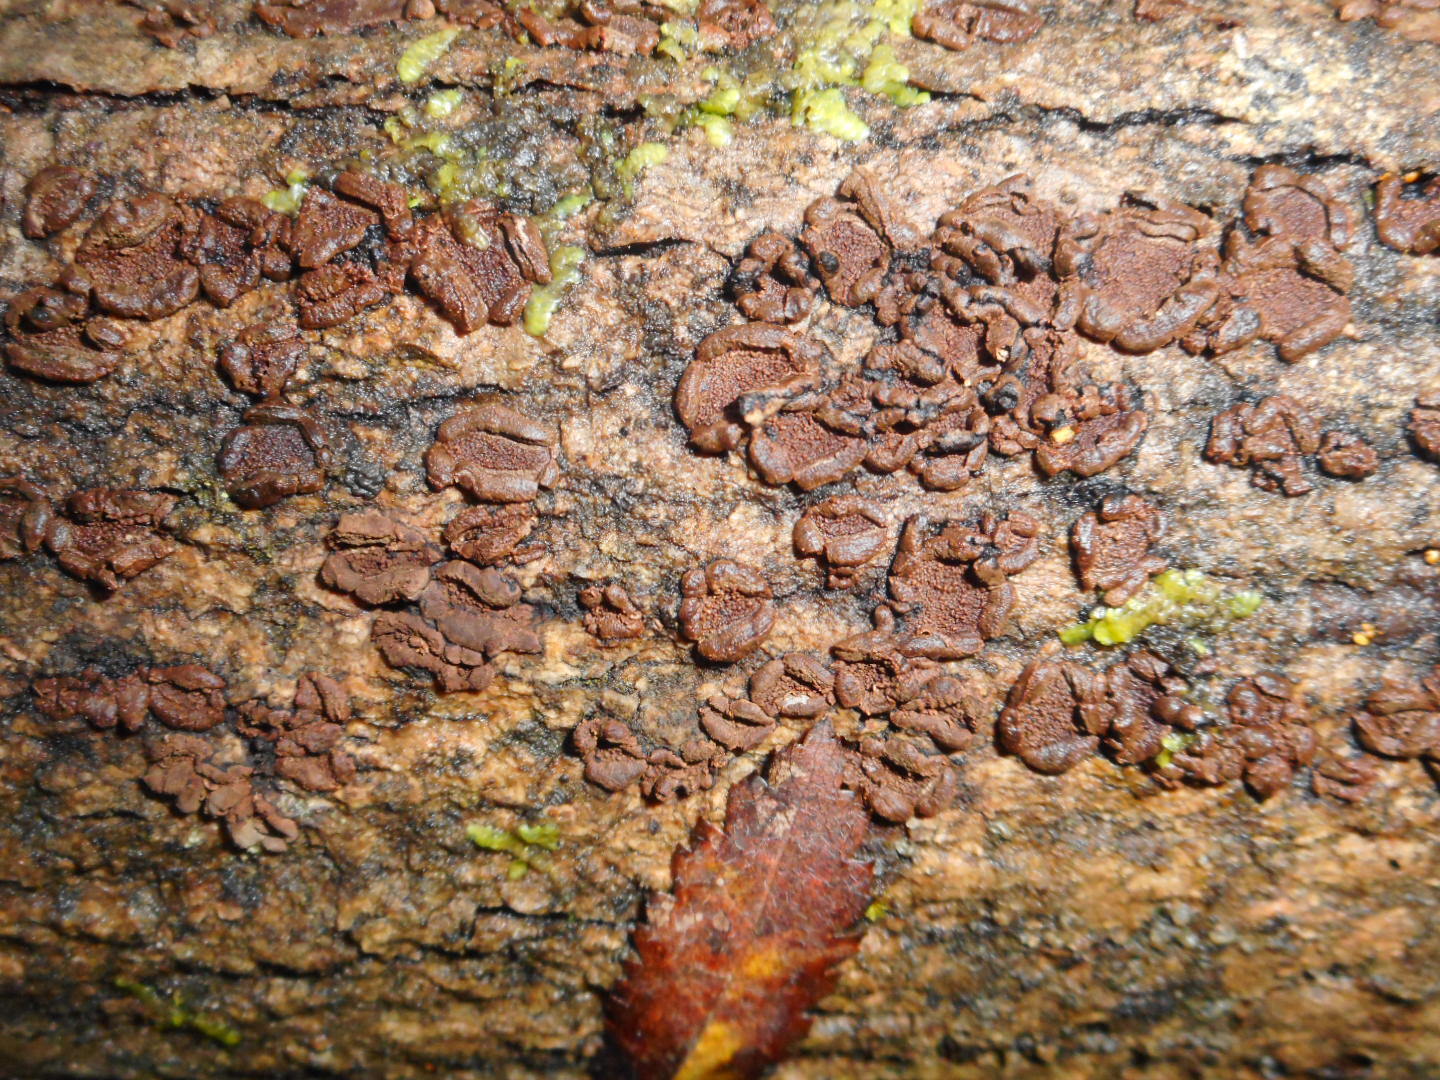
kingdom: Fungi
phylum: Ascomycota
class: Sordariomycetes
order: Xylariales
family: Hypoxylaceae
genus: Hypoxylon
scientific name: Hypoxylon cercidicola
